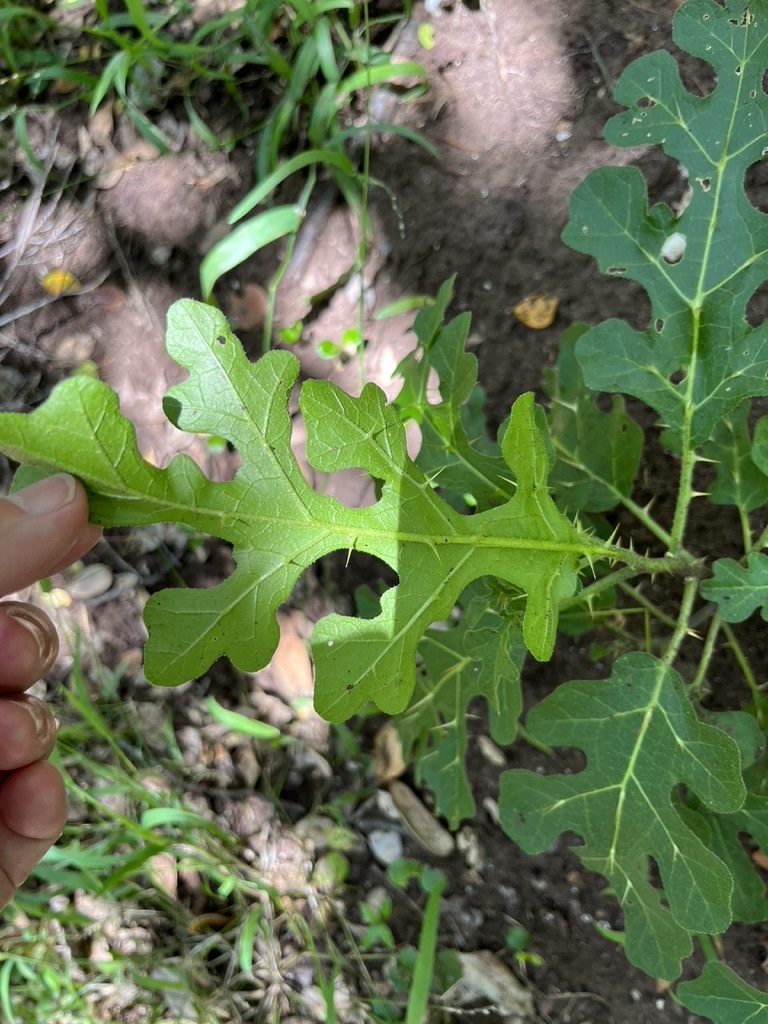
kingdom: Plantae
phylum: Tracheophyta
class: Magnoliopsida
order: Solanales
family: Solanaceae
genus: Solanum
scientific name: Solanum linnaeanum
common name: Nightshade
